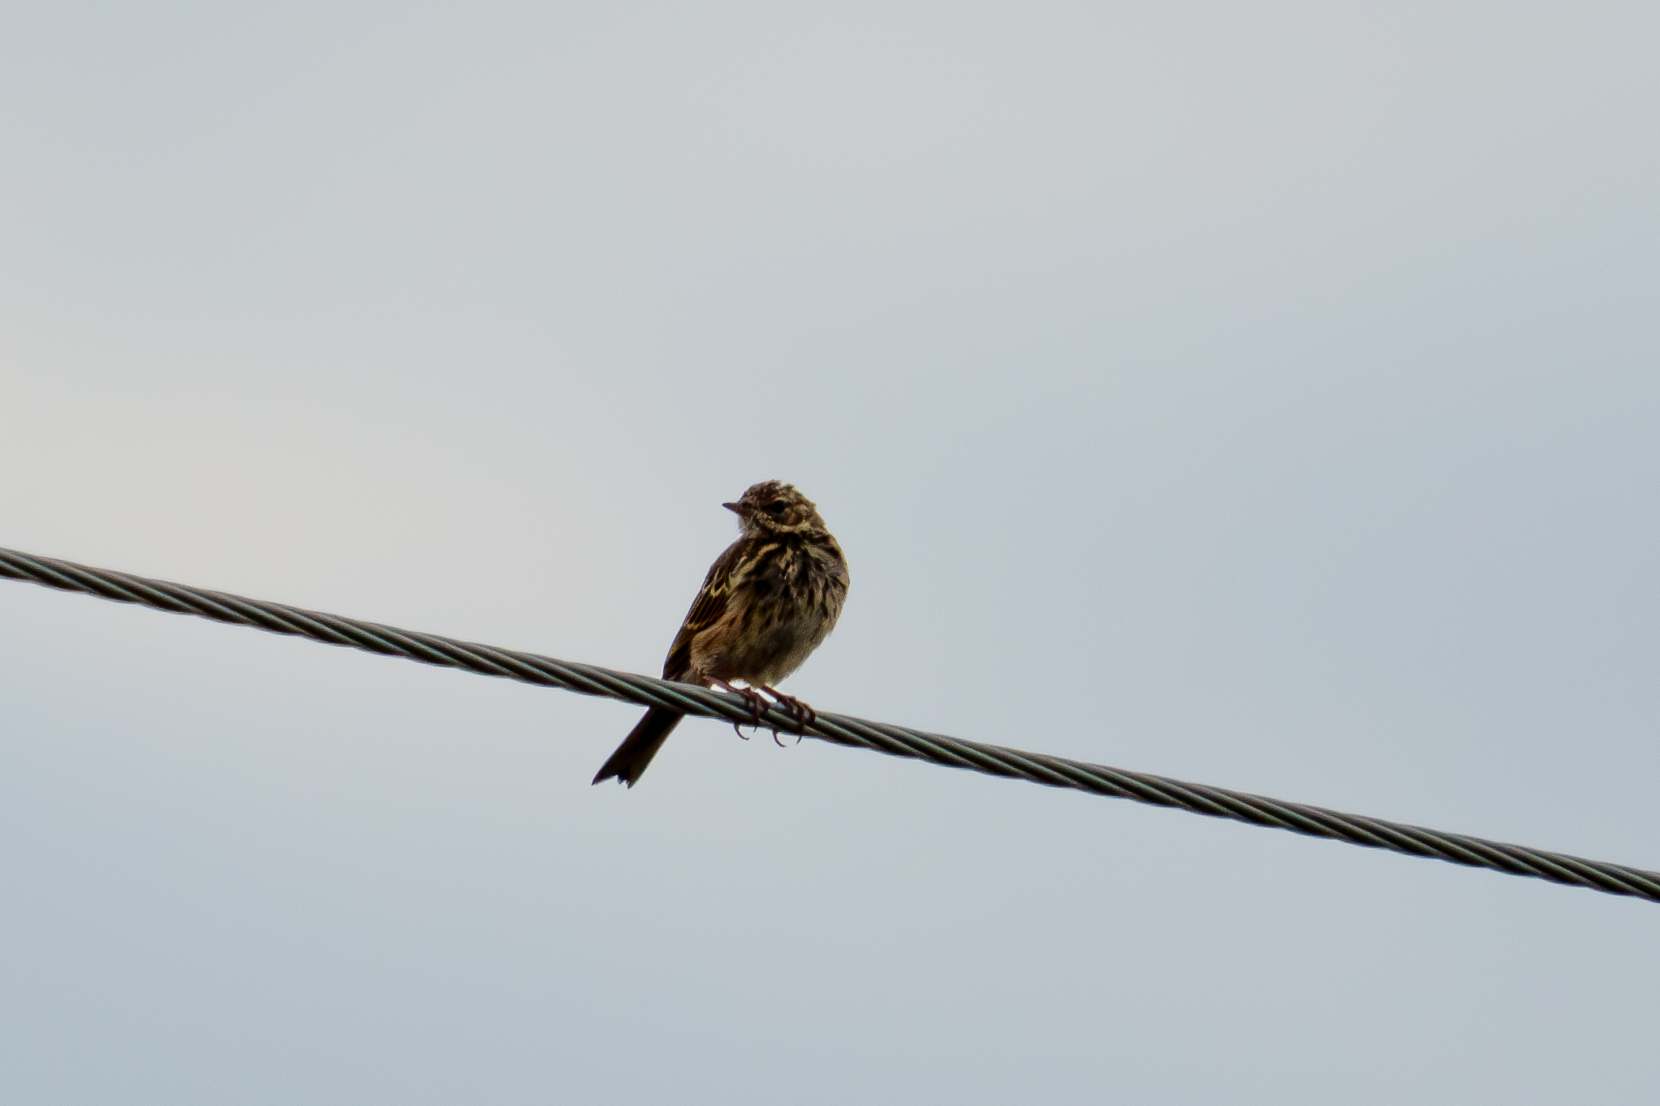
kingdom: Animalia
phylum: Chordata
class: Aves
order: Passeriformes
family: Motacillidae
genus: Anthus
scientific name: Anthus trivialis
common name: Tree pipit
